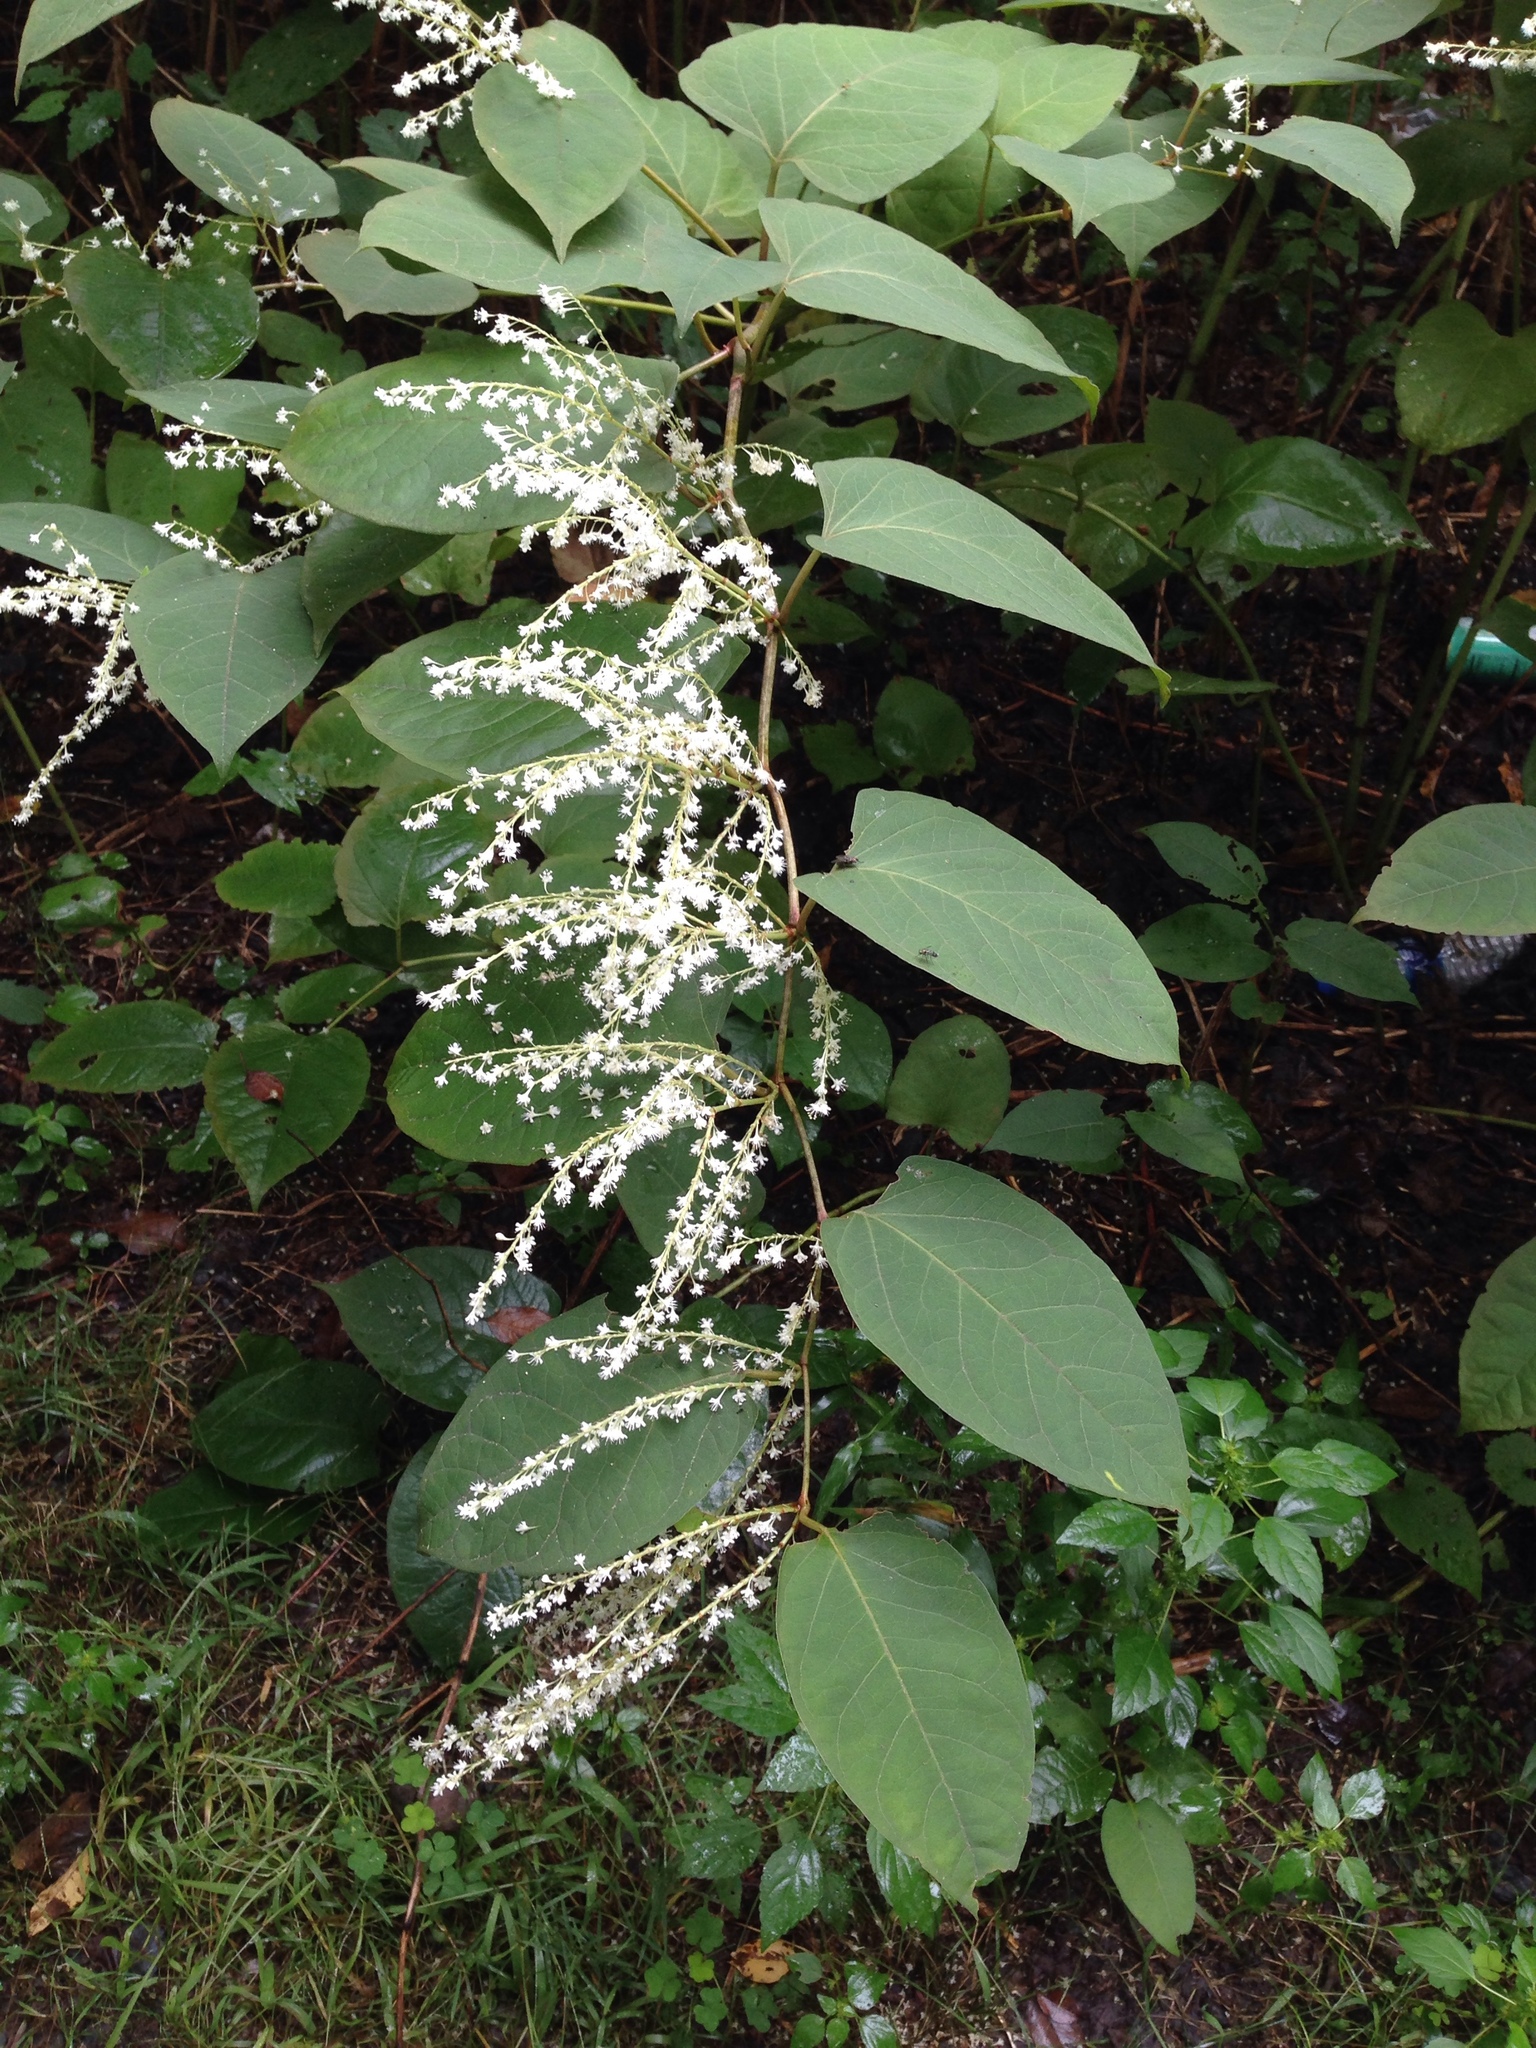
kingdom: Plantae
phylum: Tracheophyta
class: Magnoliopsida
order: Caryophyllales
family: Polygonaceae
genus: Reynoutria
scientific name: Reynoutria japonica
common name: Japanese knotweed
